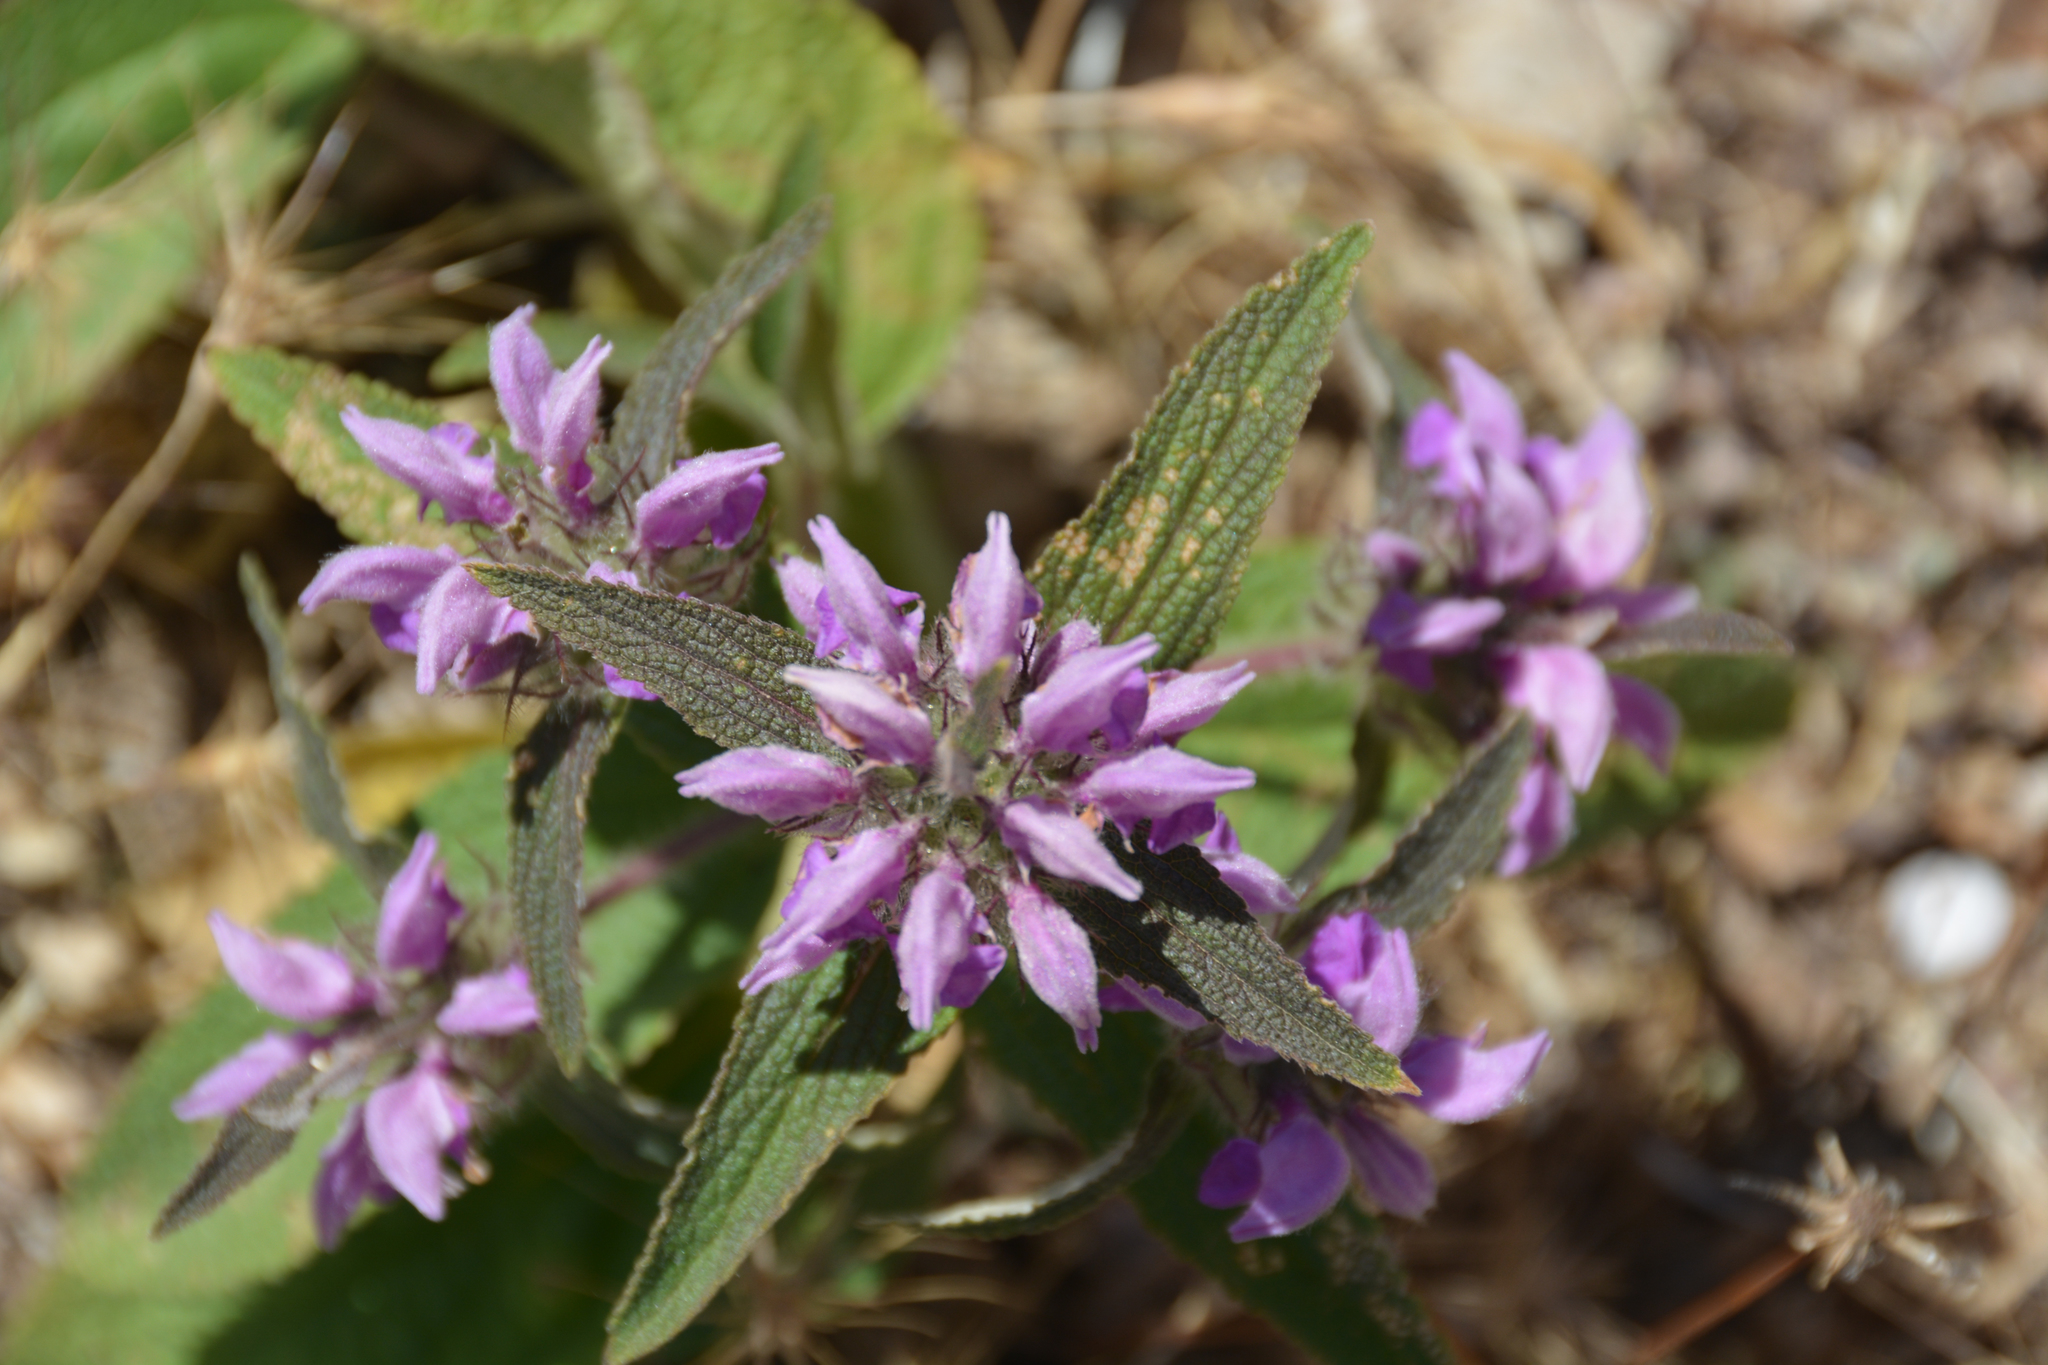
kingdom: Plantae
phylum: Tracheophyta
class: Magnoliopsida
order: Lamiales
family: Lamiaceae
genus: Phlomis
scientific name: Phlomis herba-venti
